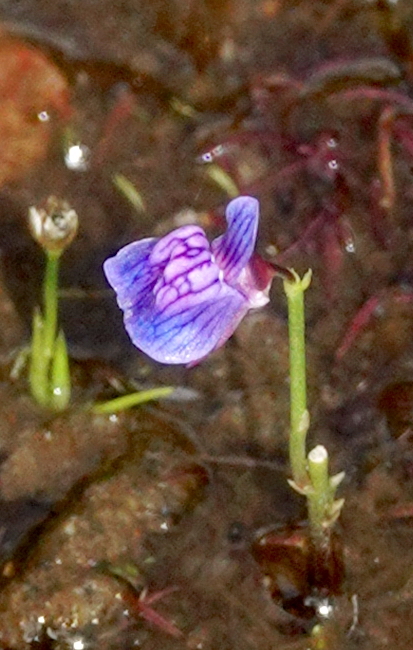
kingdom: Plantae
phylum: Tracheophyta
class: Magnoliopsida
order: Lamiales
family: Lentibulariaceae
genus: Utricularia
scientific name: Utricularia graminifolia
